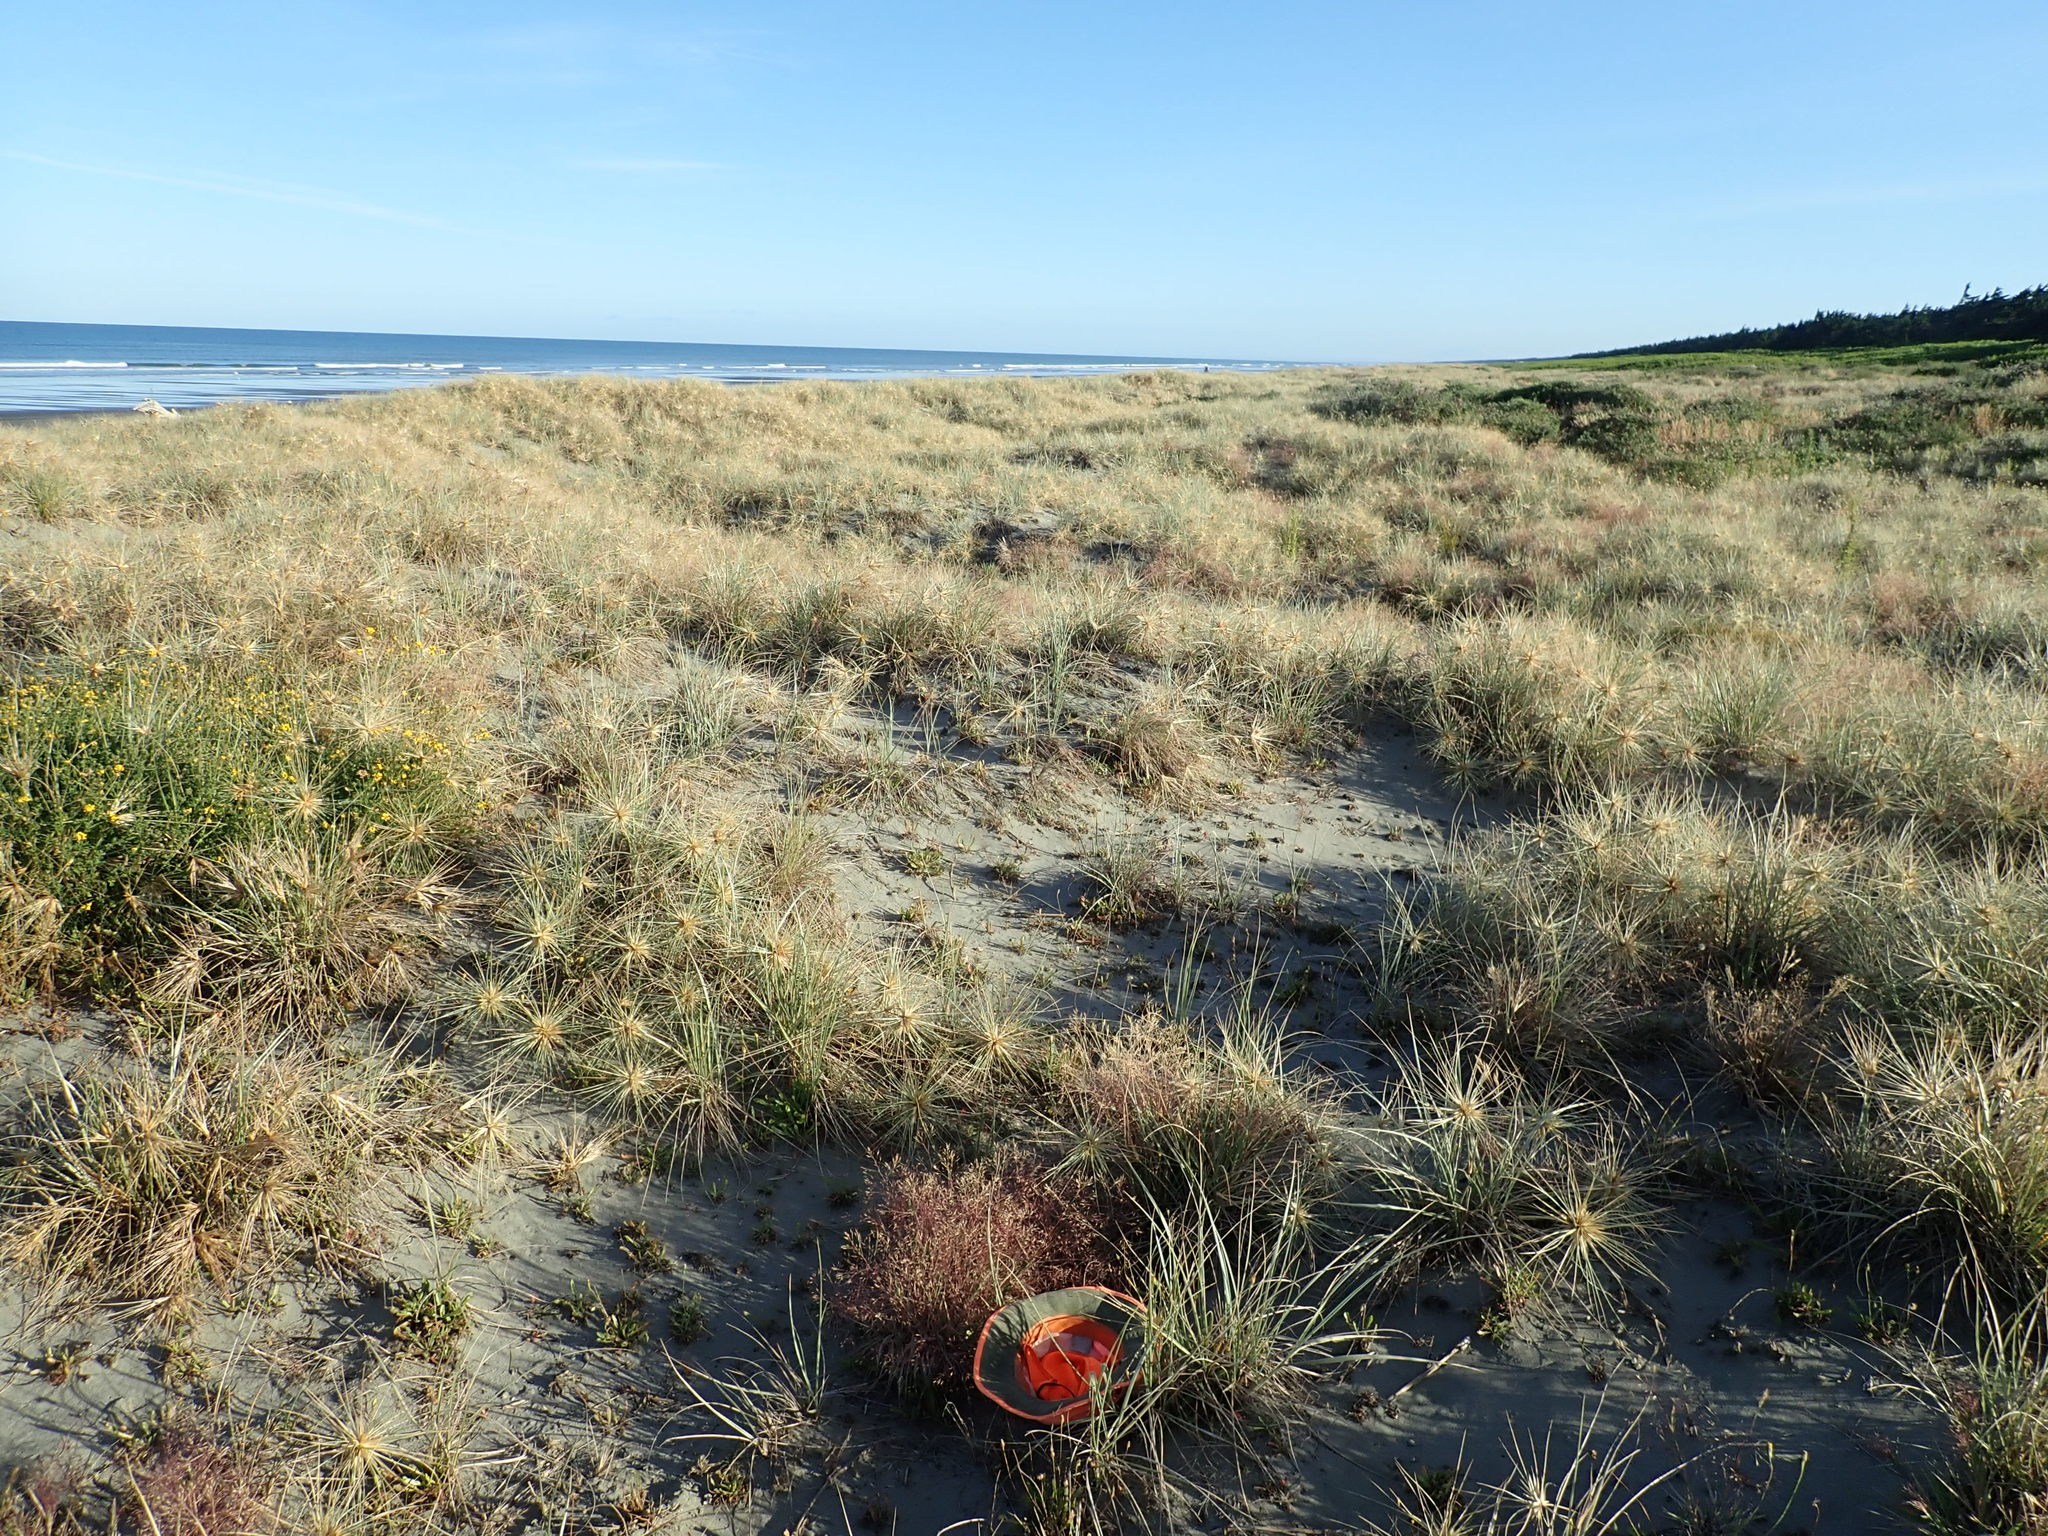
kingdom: Plantae
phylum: Tracheophyta
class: Liliopsida
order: Poales
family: Poaceae
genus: Lachnagrostis
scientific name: Lachnagrostis billardierei
